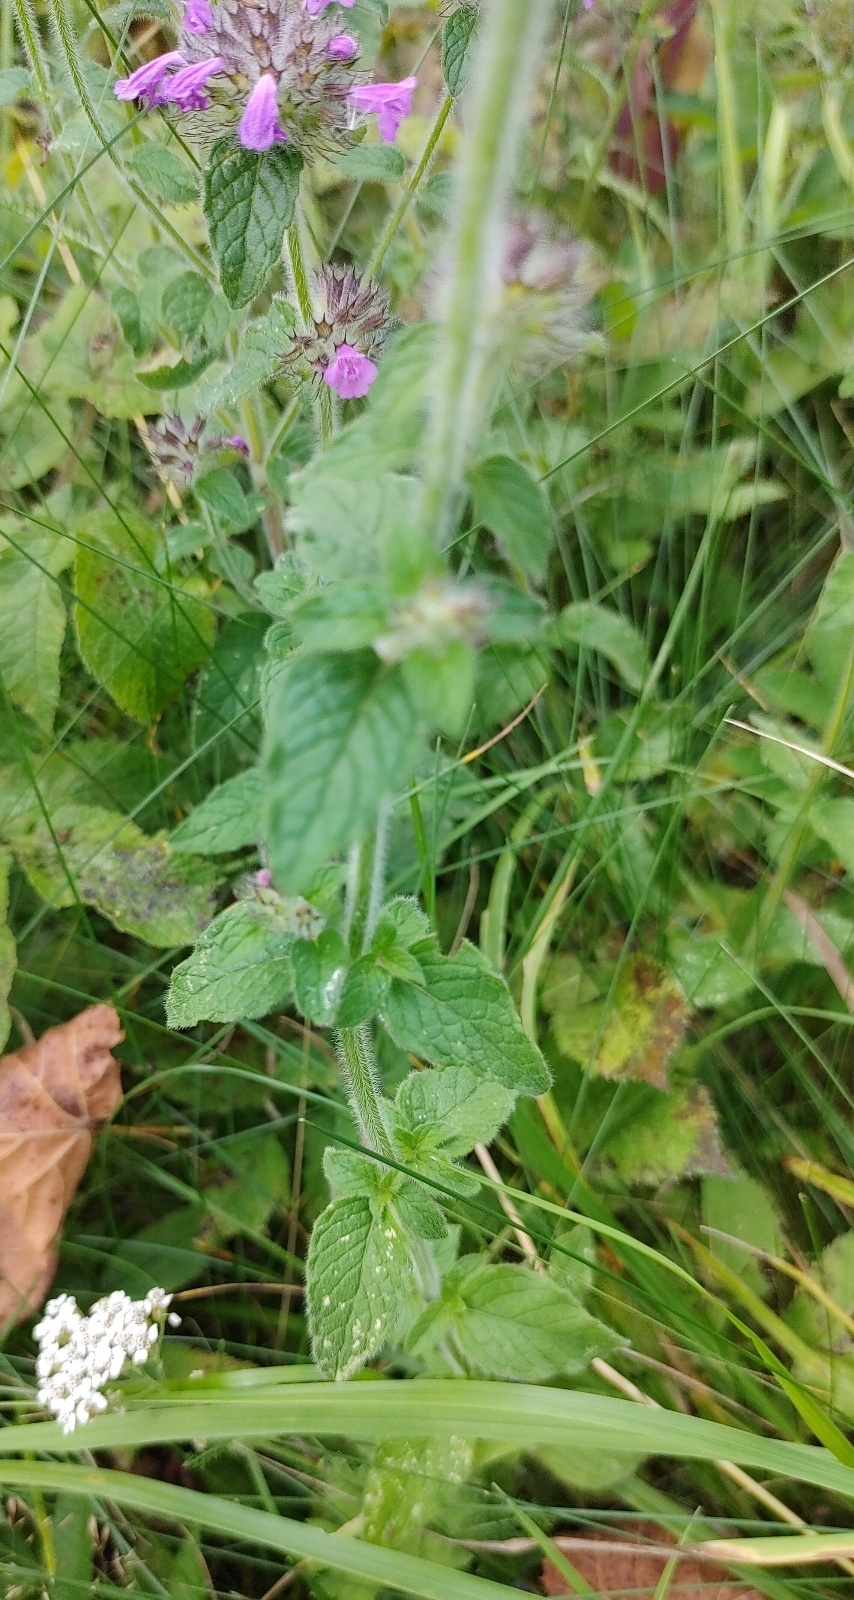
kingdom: Plantae
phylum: Tracheophyta
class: Magnoliopsida
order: Lamiales
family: Lamiaceae
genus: Clinopodium
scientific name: Clinopodium vulgare
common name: Wild basil
